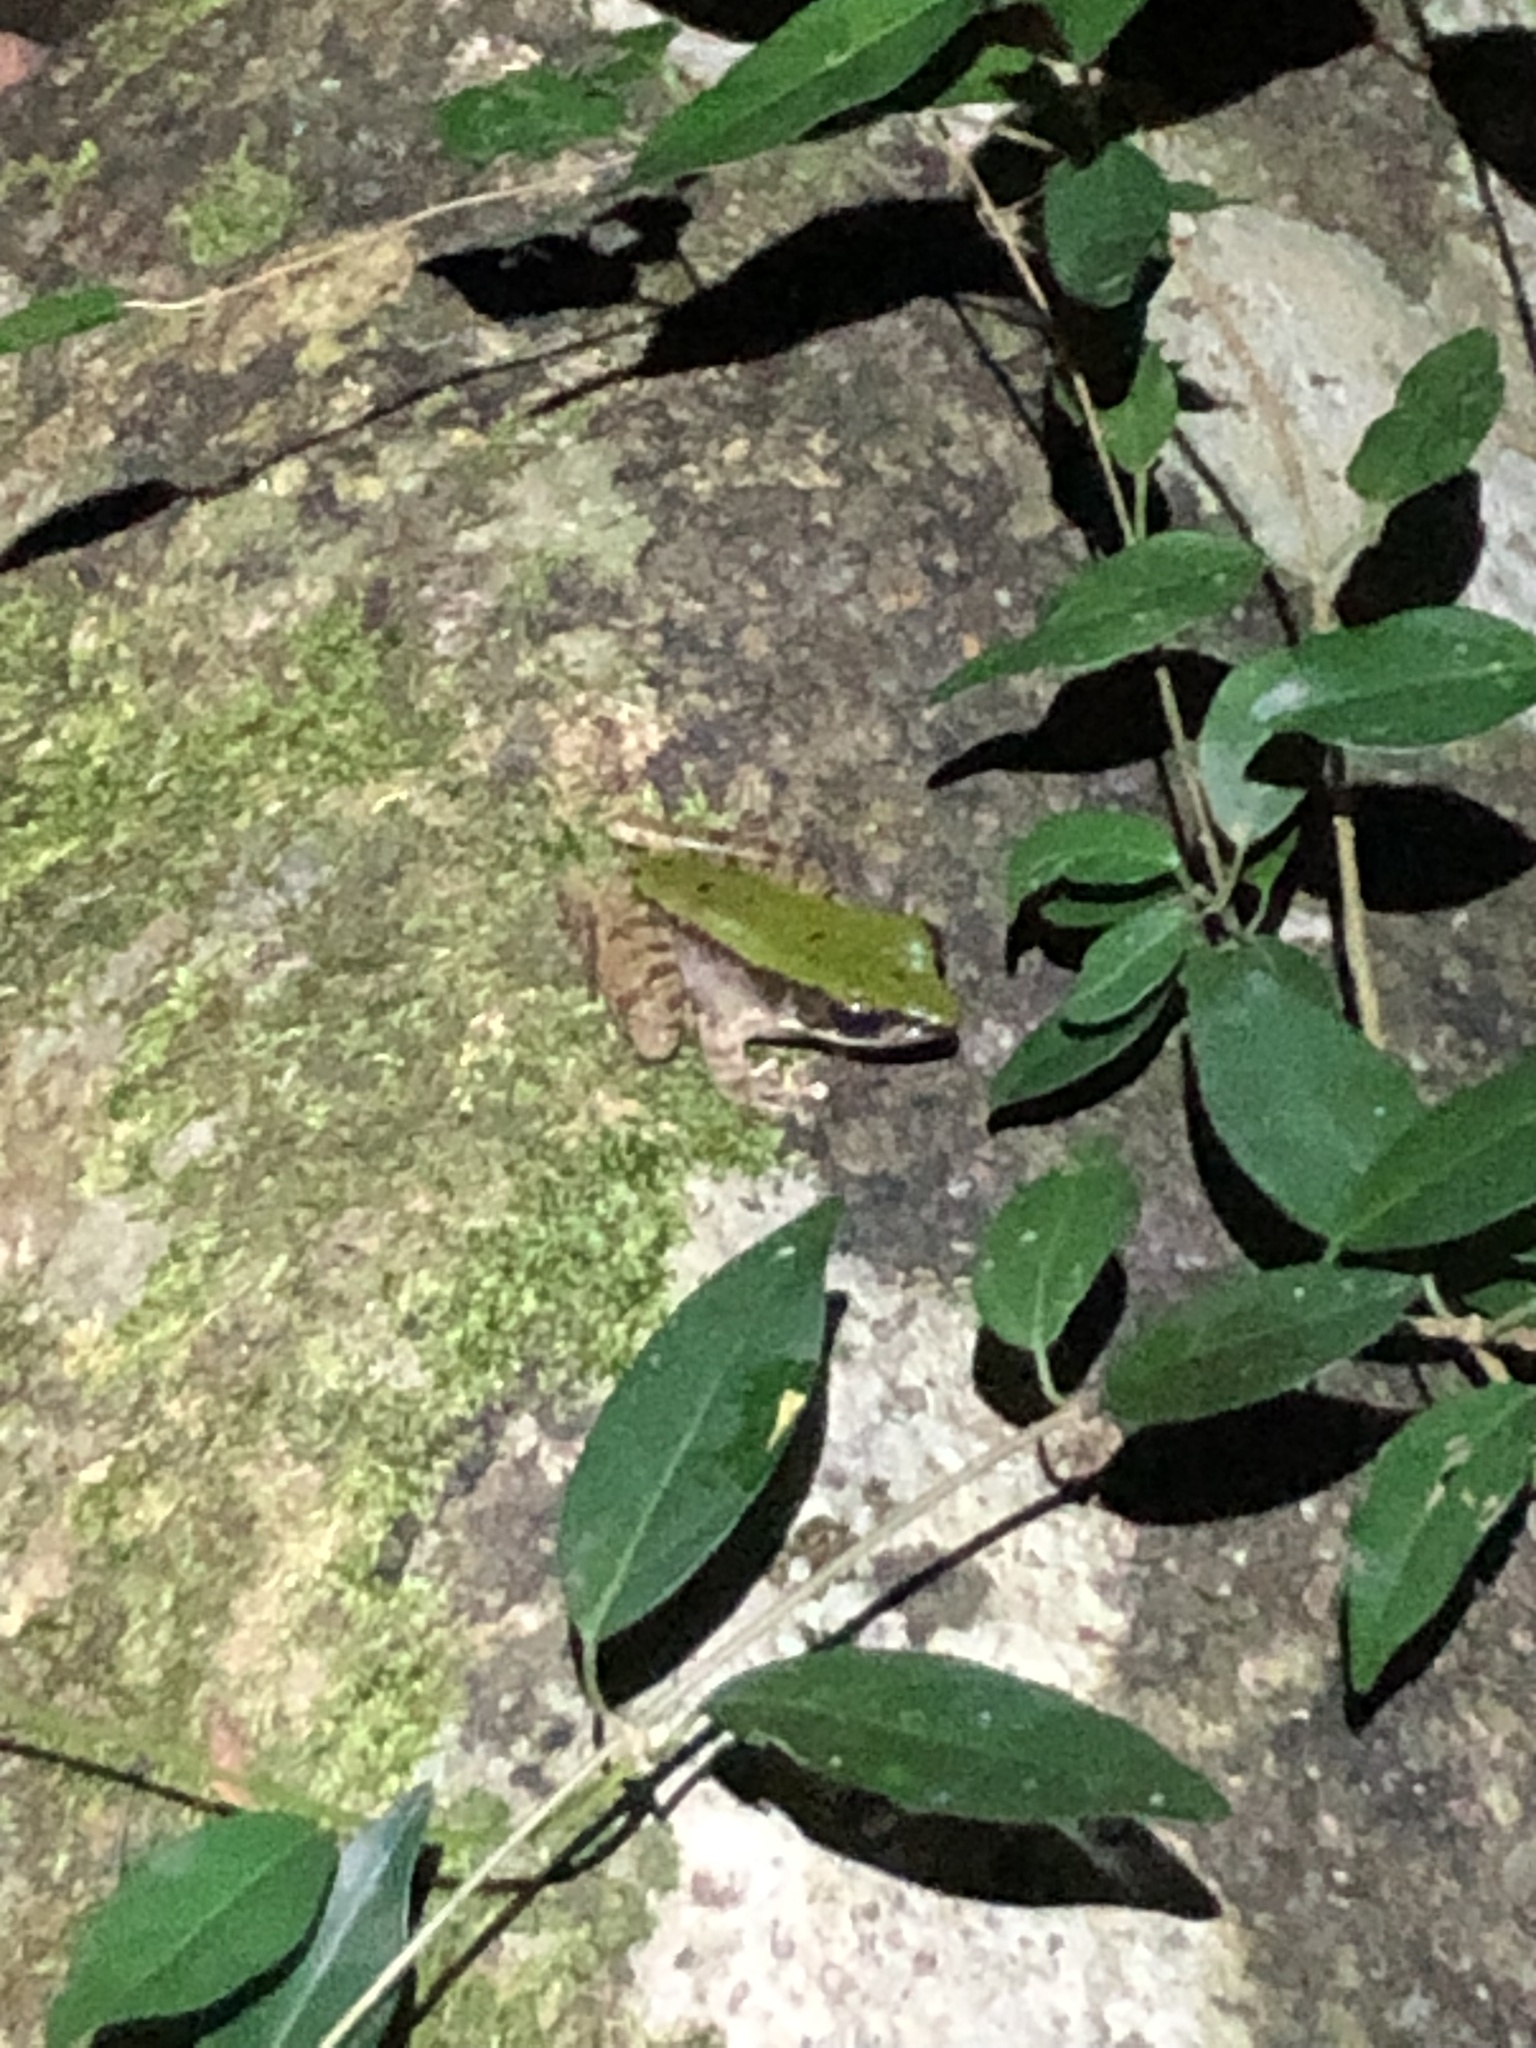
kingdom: Animalia
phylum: Chordata
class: Amphibia
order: Anura
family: Ranidae
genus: Odorrana
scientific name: Odorrana graminea
